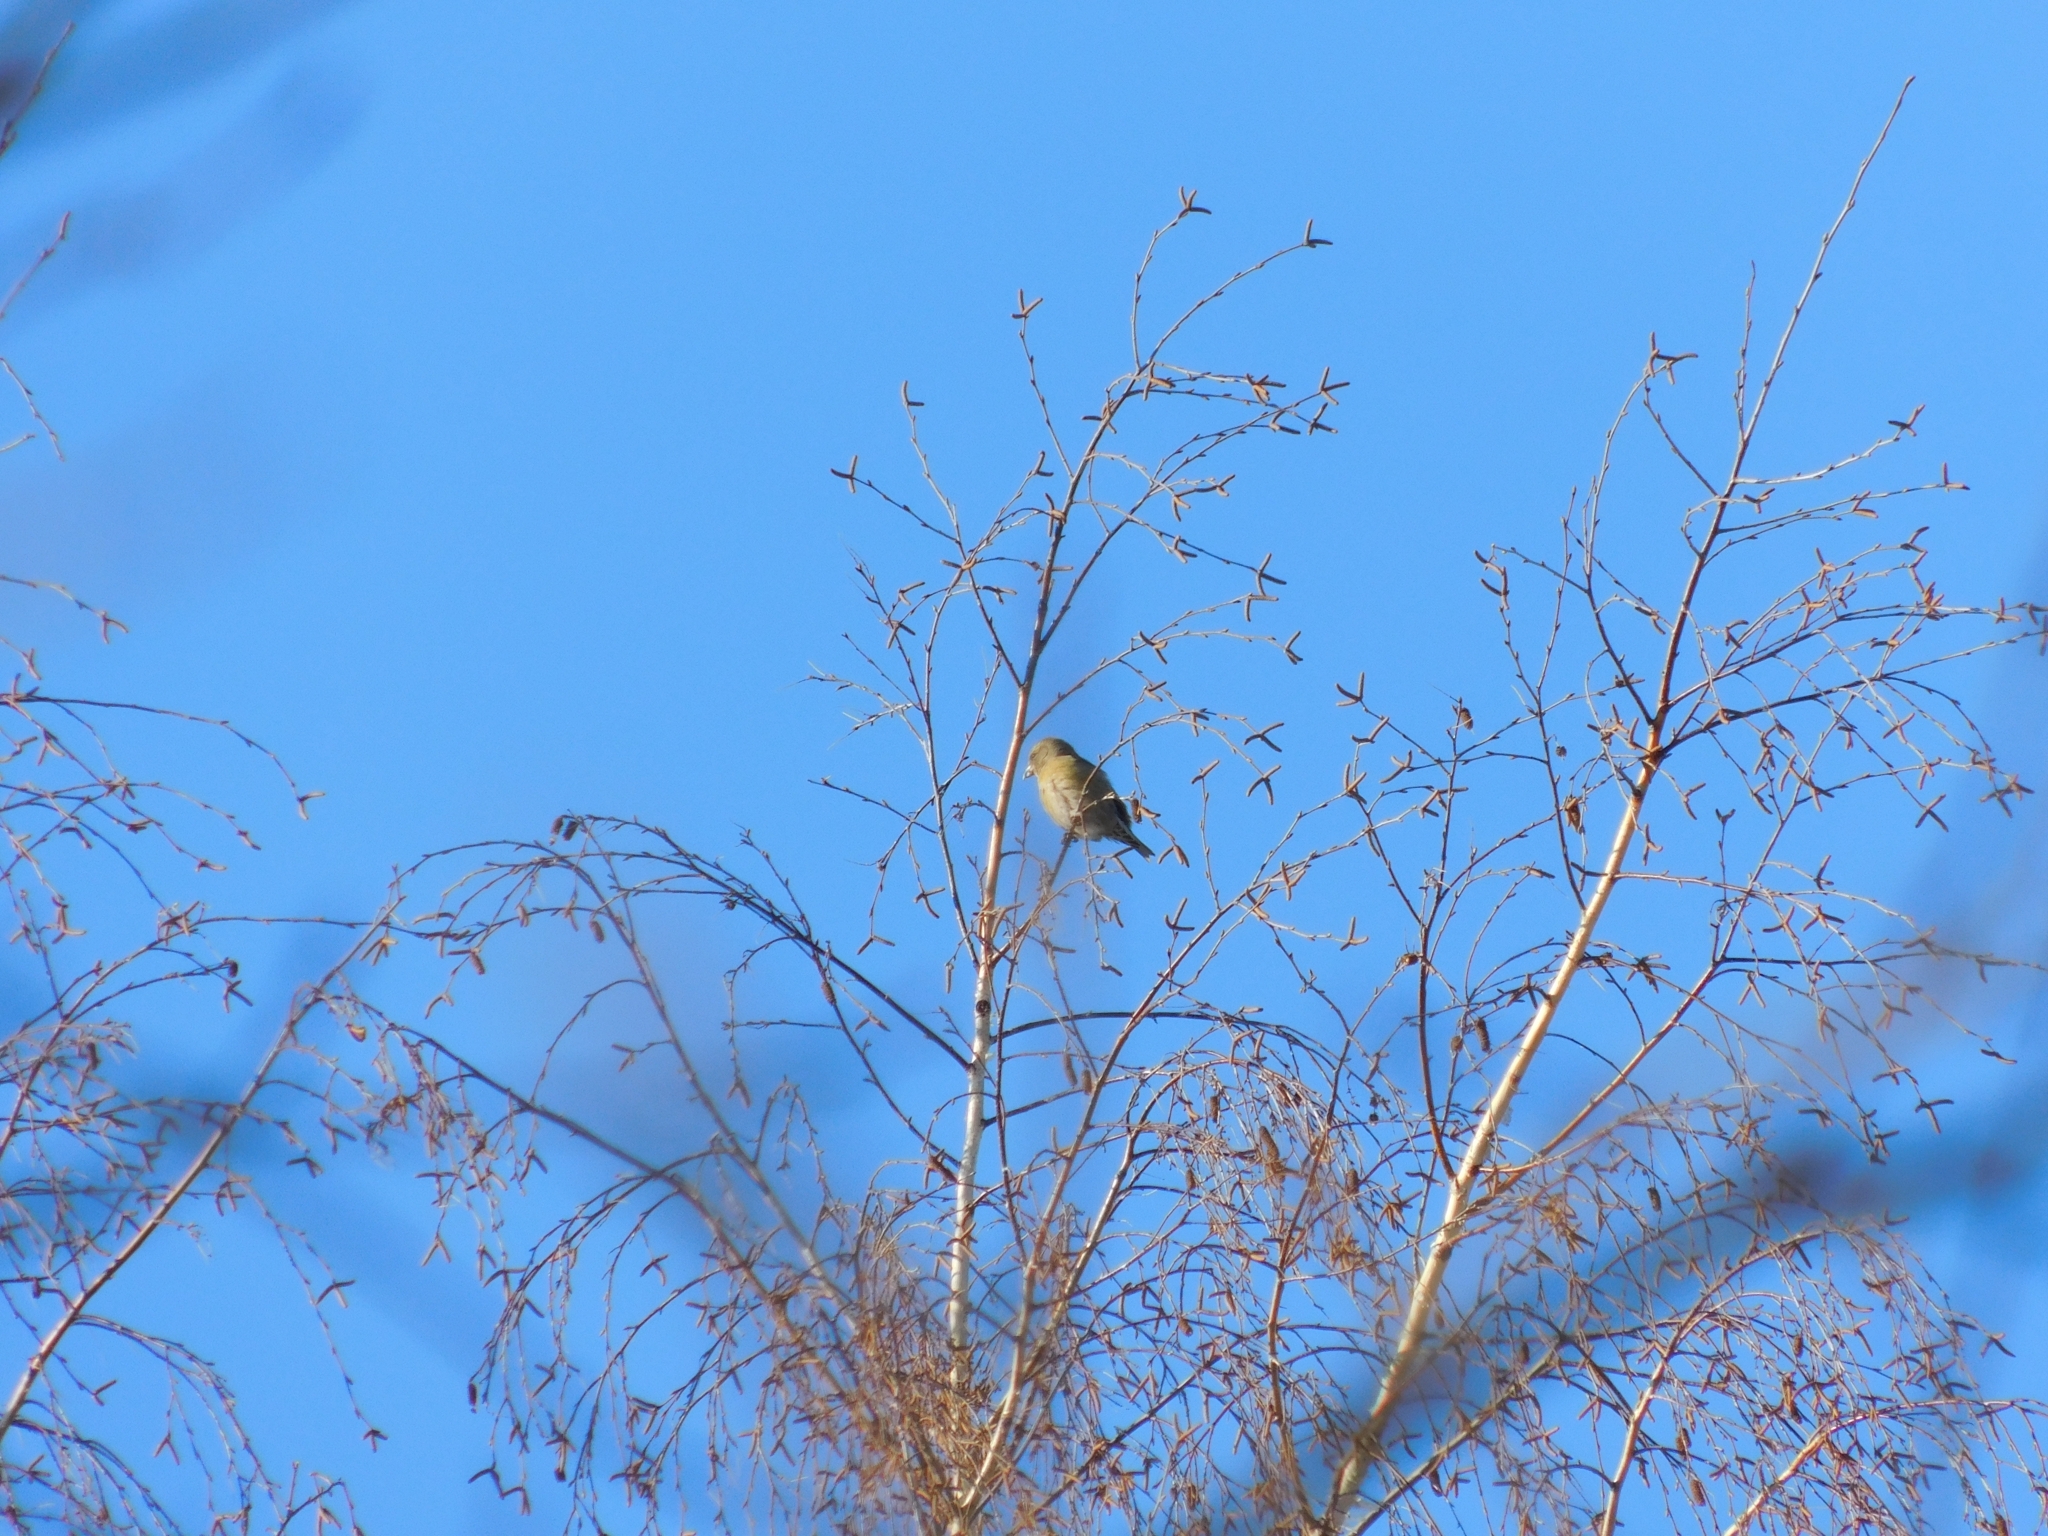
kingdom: Animalia
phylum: Chordata
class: Aves
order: Passeriformes
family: Fringillidae
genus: Loxia
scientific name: Loxia curvirostra
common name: Red crossbill
